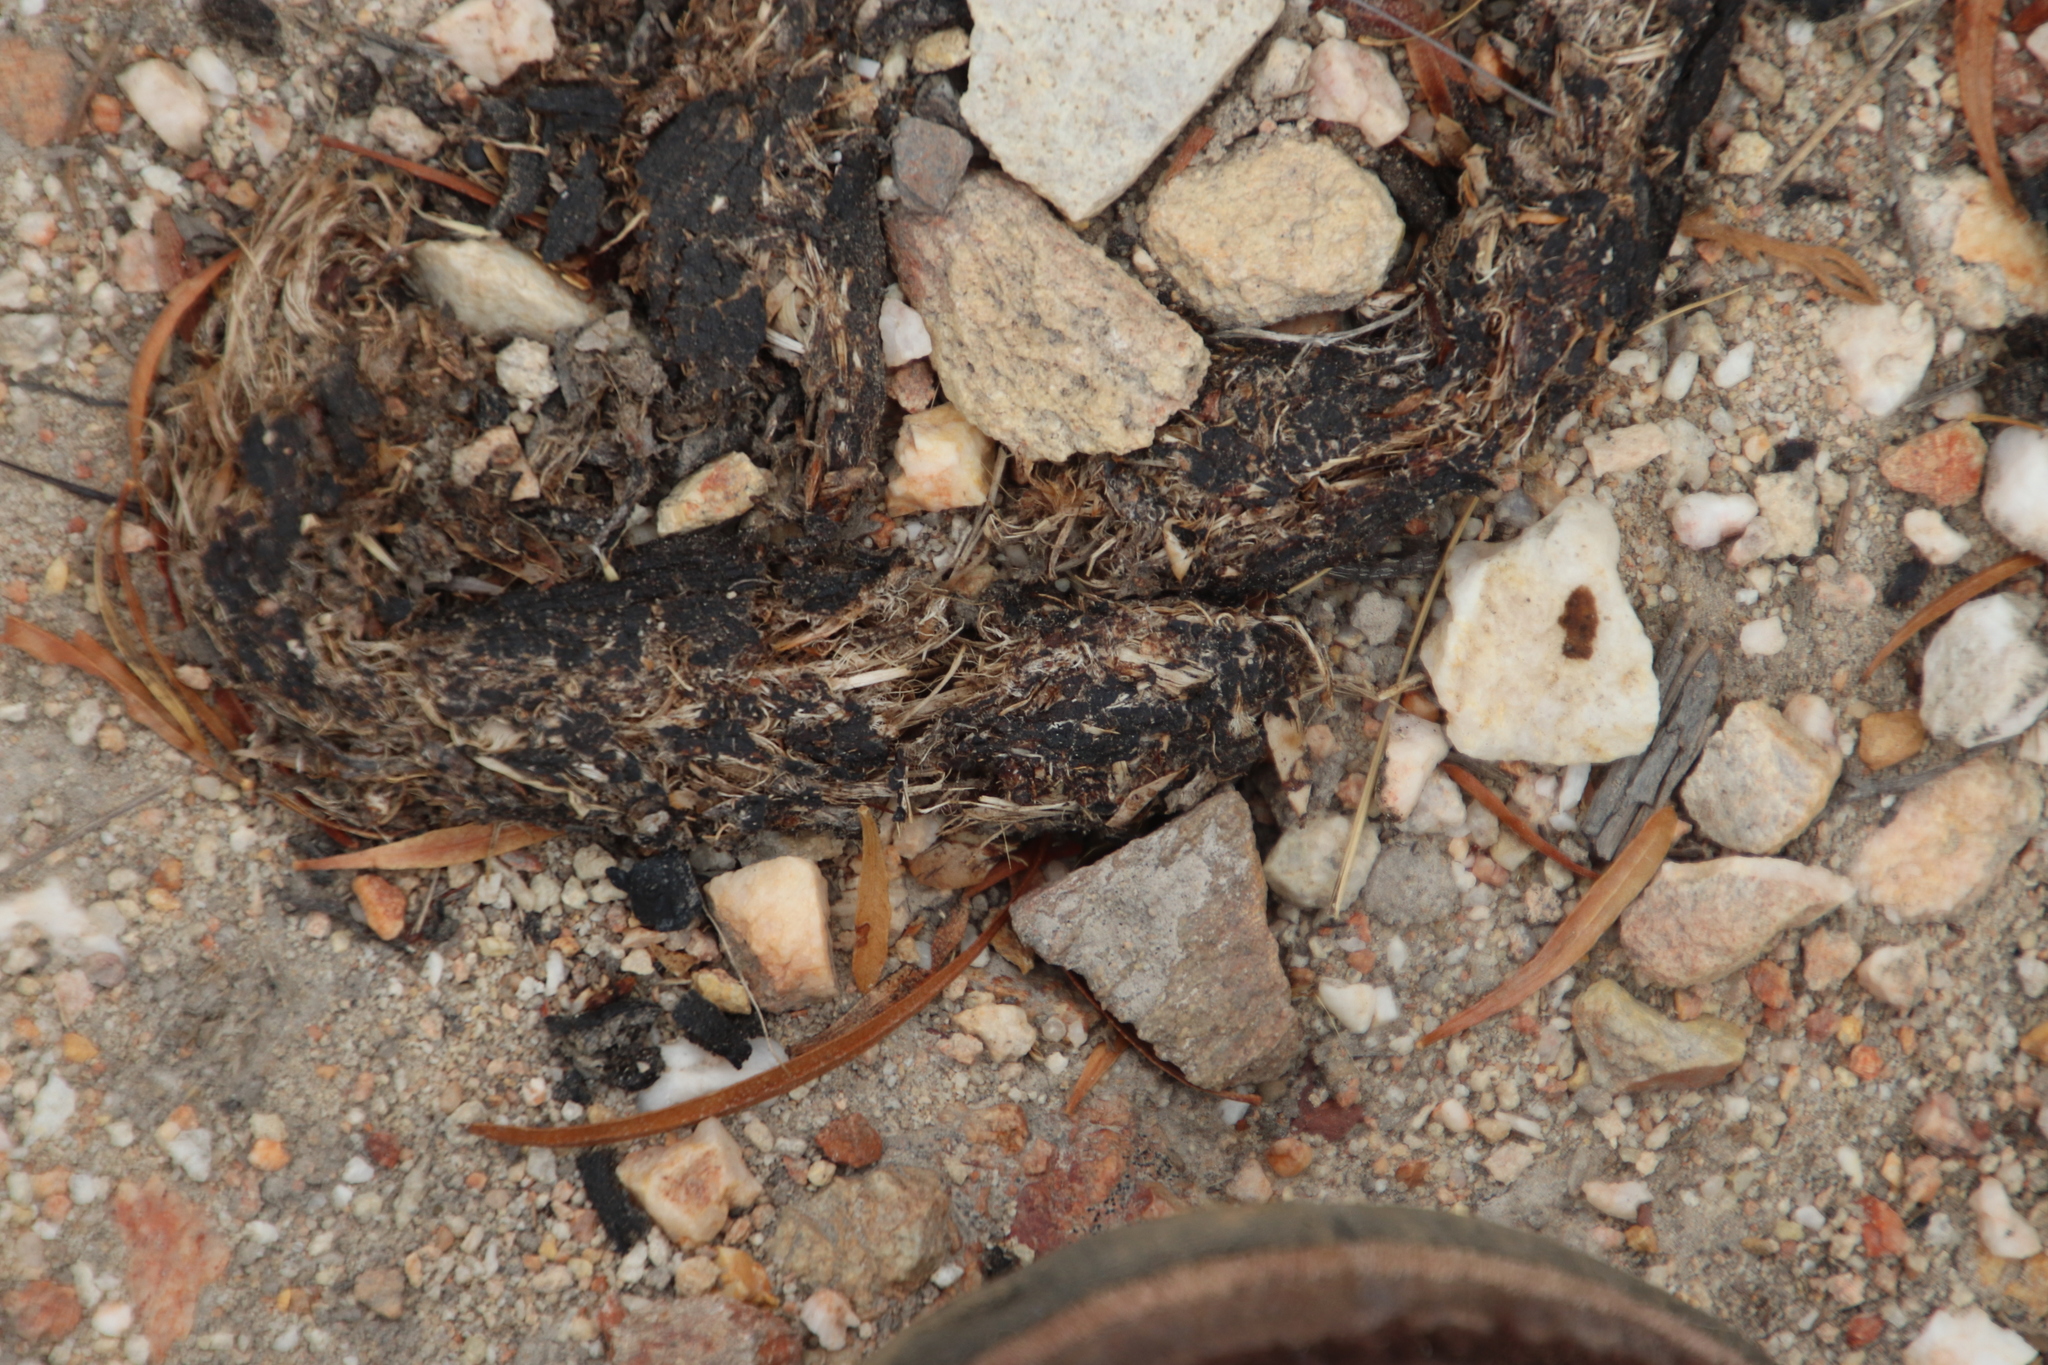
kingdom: Animalia
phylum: Chordata
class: Mammalia
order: Rodentia
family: Hystricidae
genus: Hystrix
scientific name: Hystrix africaeaustralis
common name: Cape porcupine
